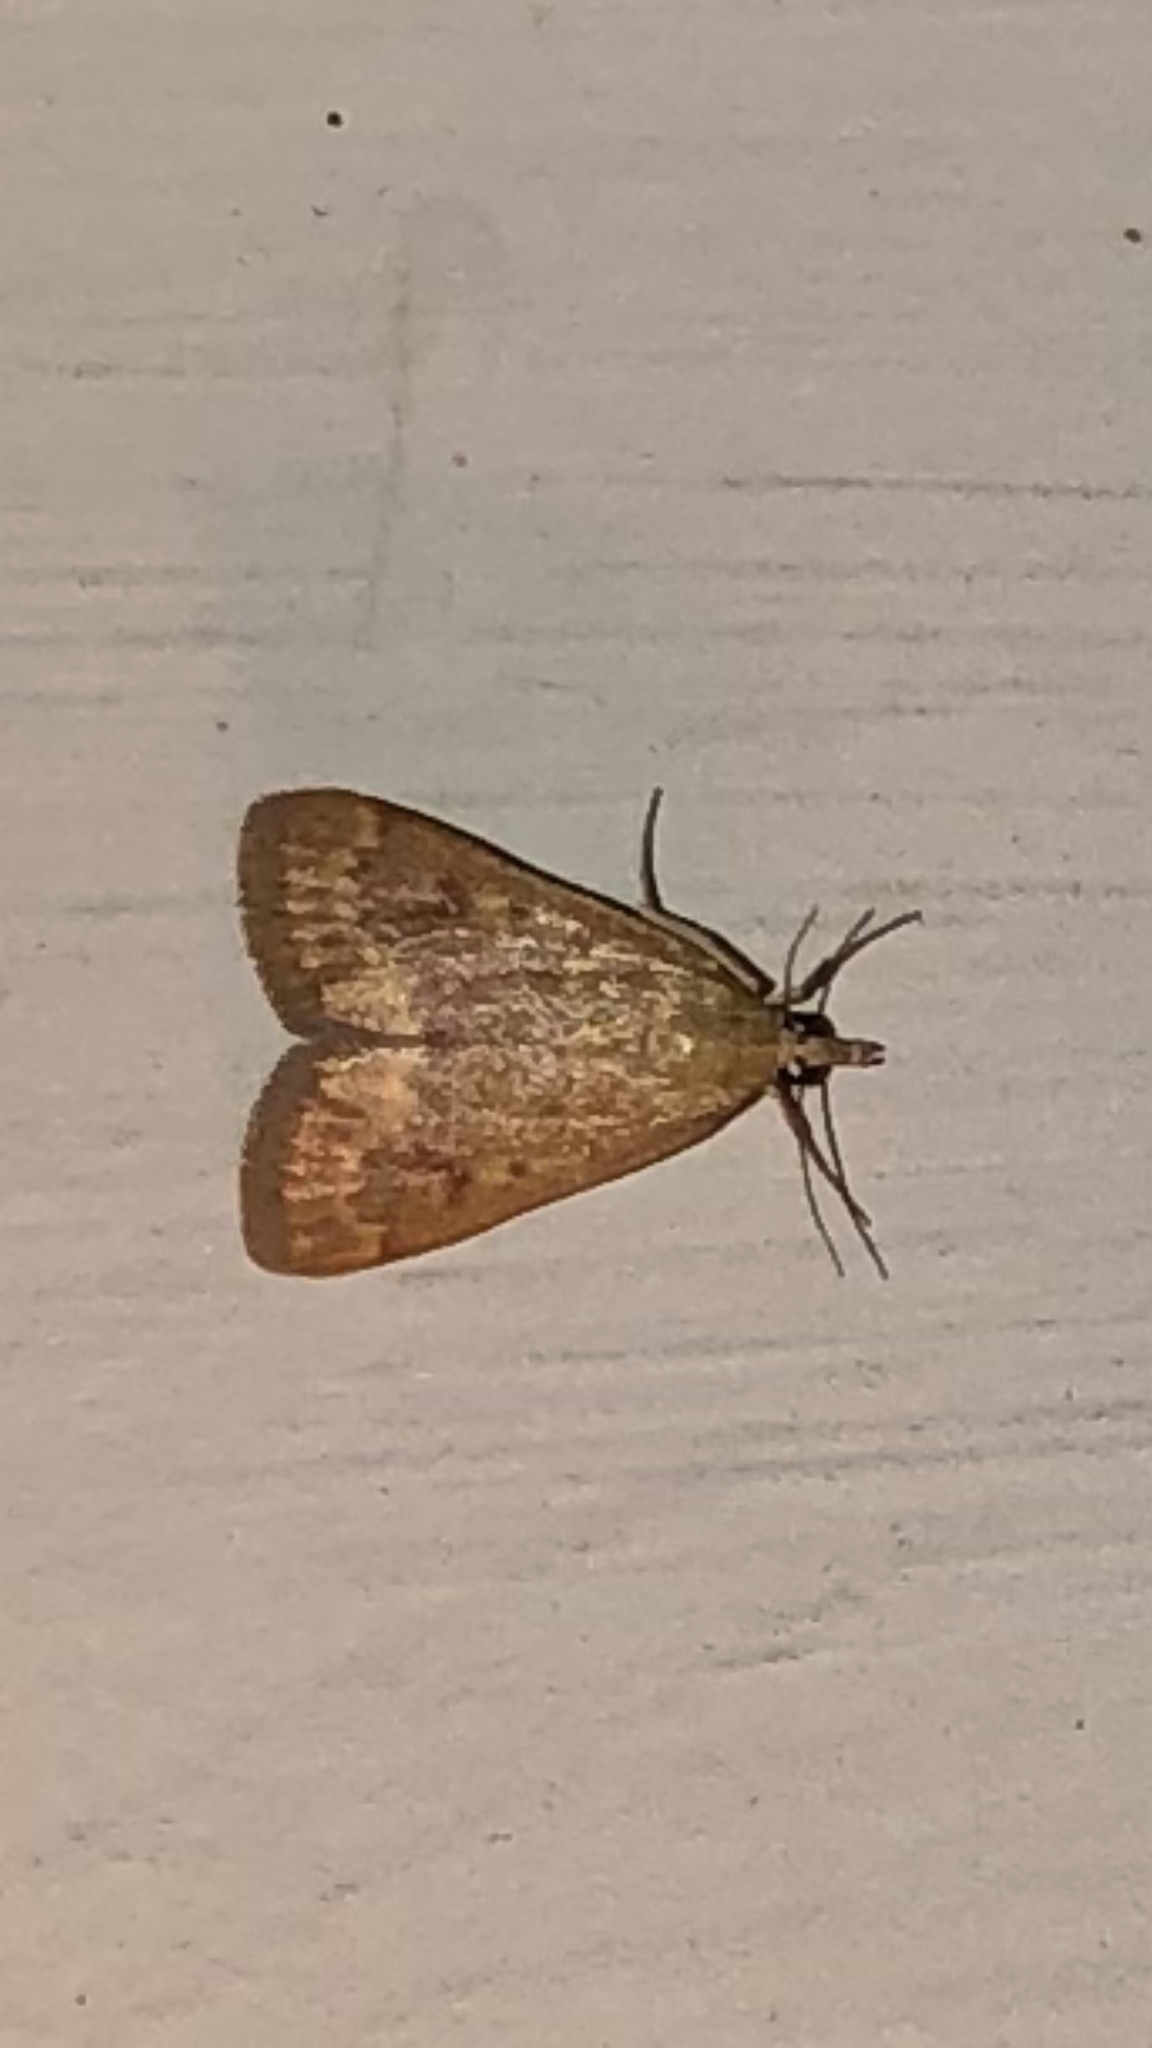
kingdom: Animalia
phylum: Arthropoda
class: Insecta
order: Lepidoptera
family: Crambidae
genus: Achyra
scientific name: Achyra rantalis
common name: Garden webworm
